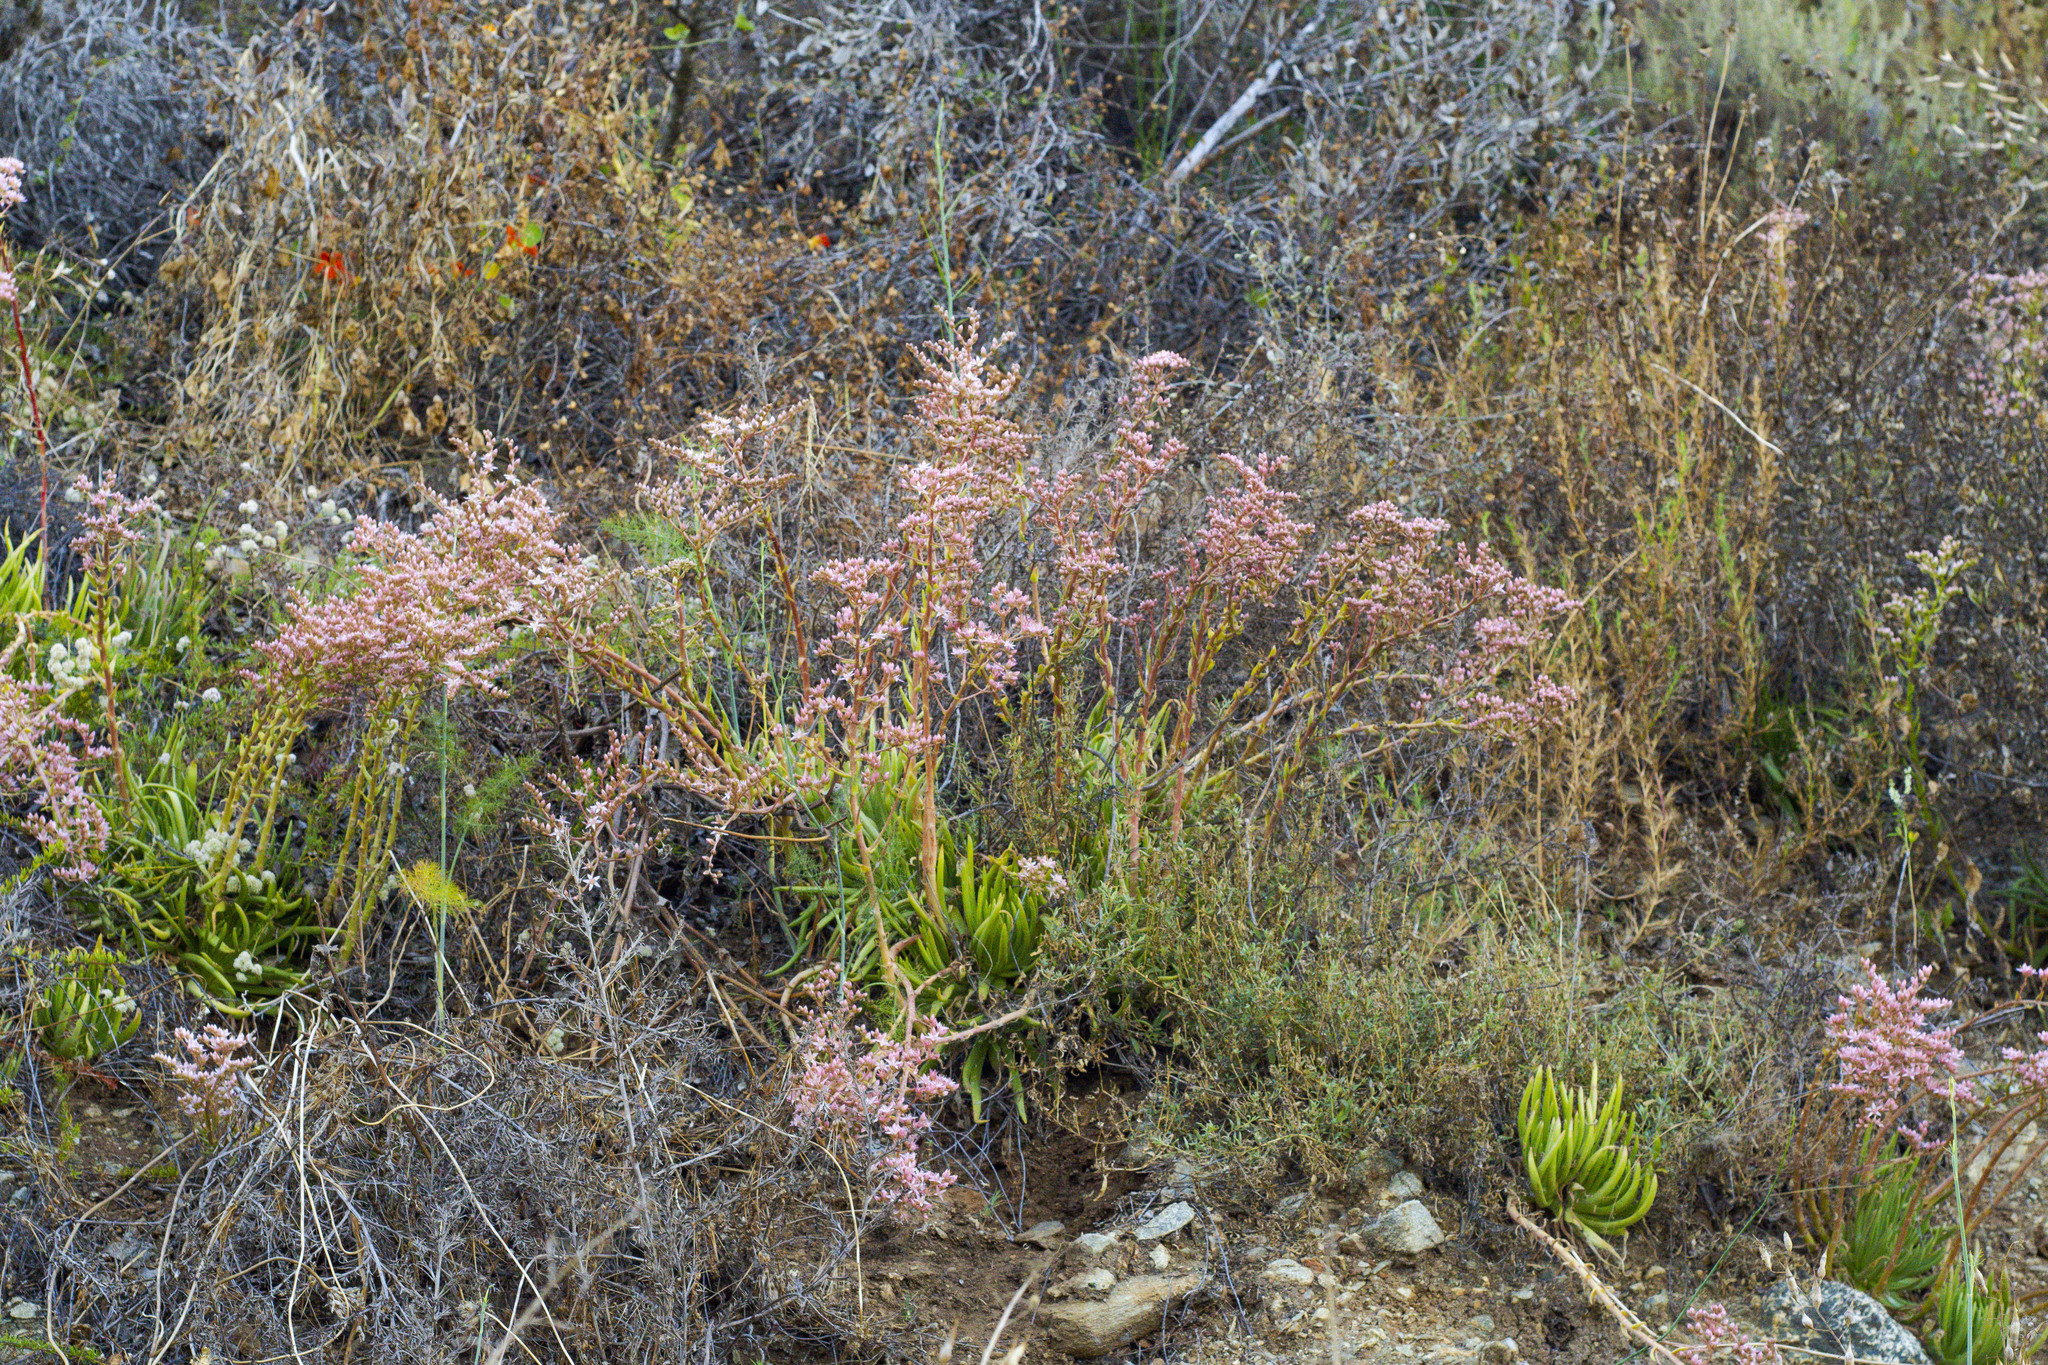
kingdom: Plantae
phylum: Tracheophyta
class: Magnoliopsida
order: Saxifragales
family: Crassulaceae
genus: Dudleya
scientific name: Dudleya viscida
